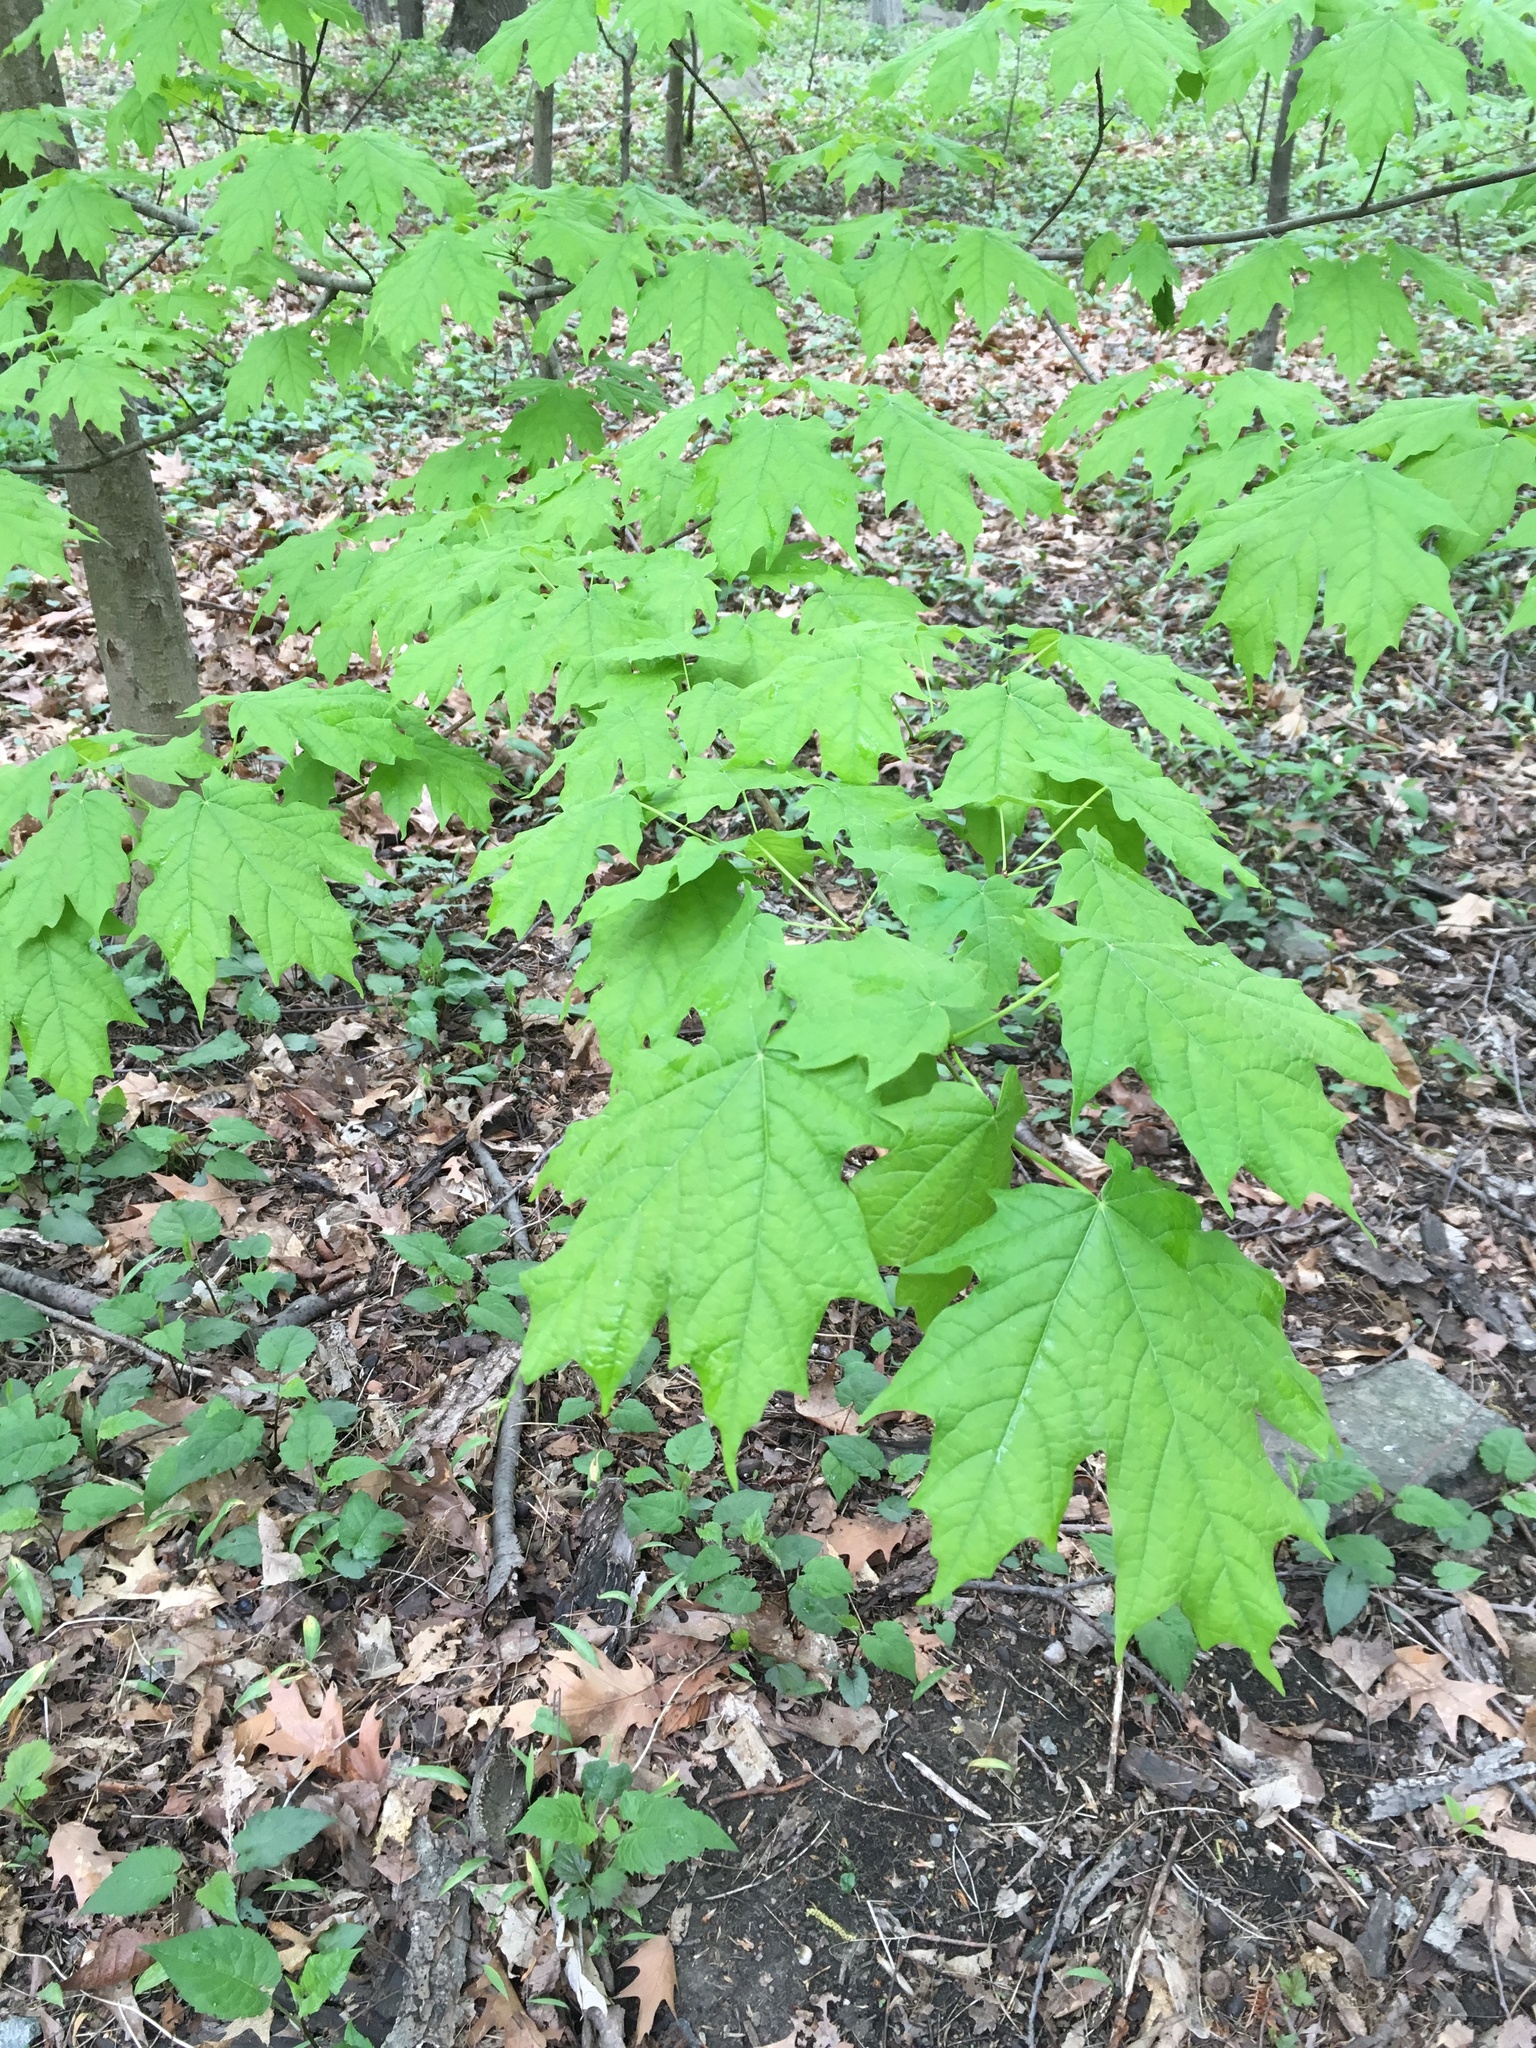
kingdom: Plantae
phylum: Tracheophyta
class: Magnoliopsida
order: Sapindales
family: Sapindaceae
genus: Acer
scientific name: Acer saccharum
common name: Sugar maple
